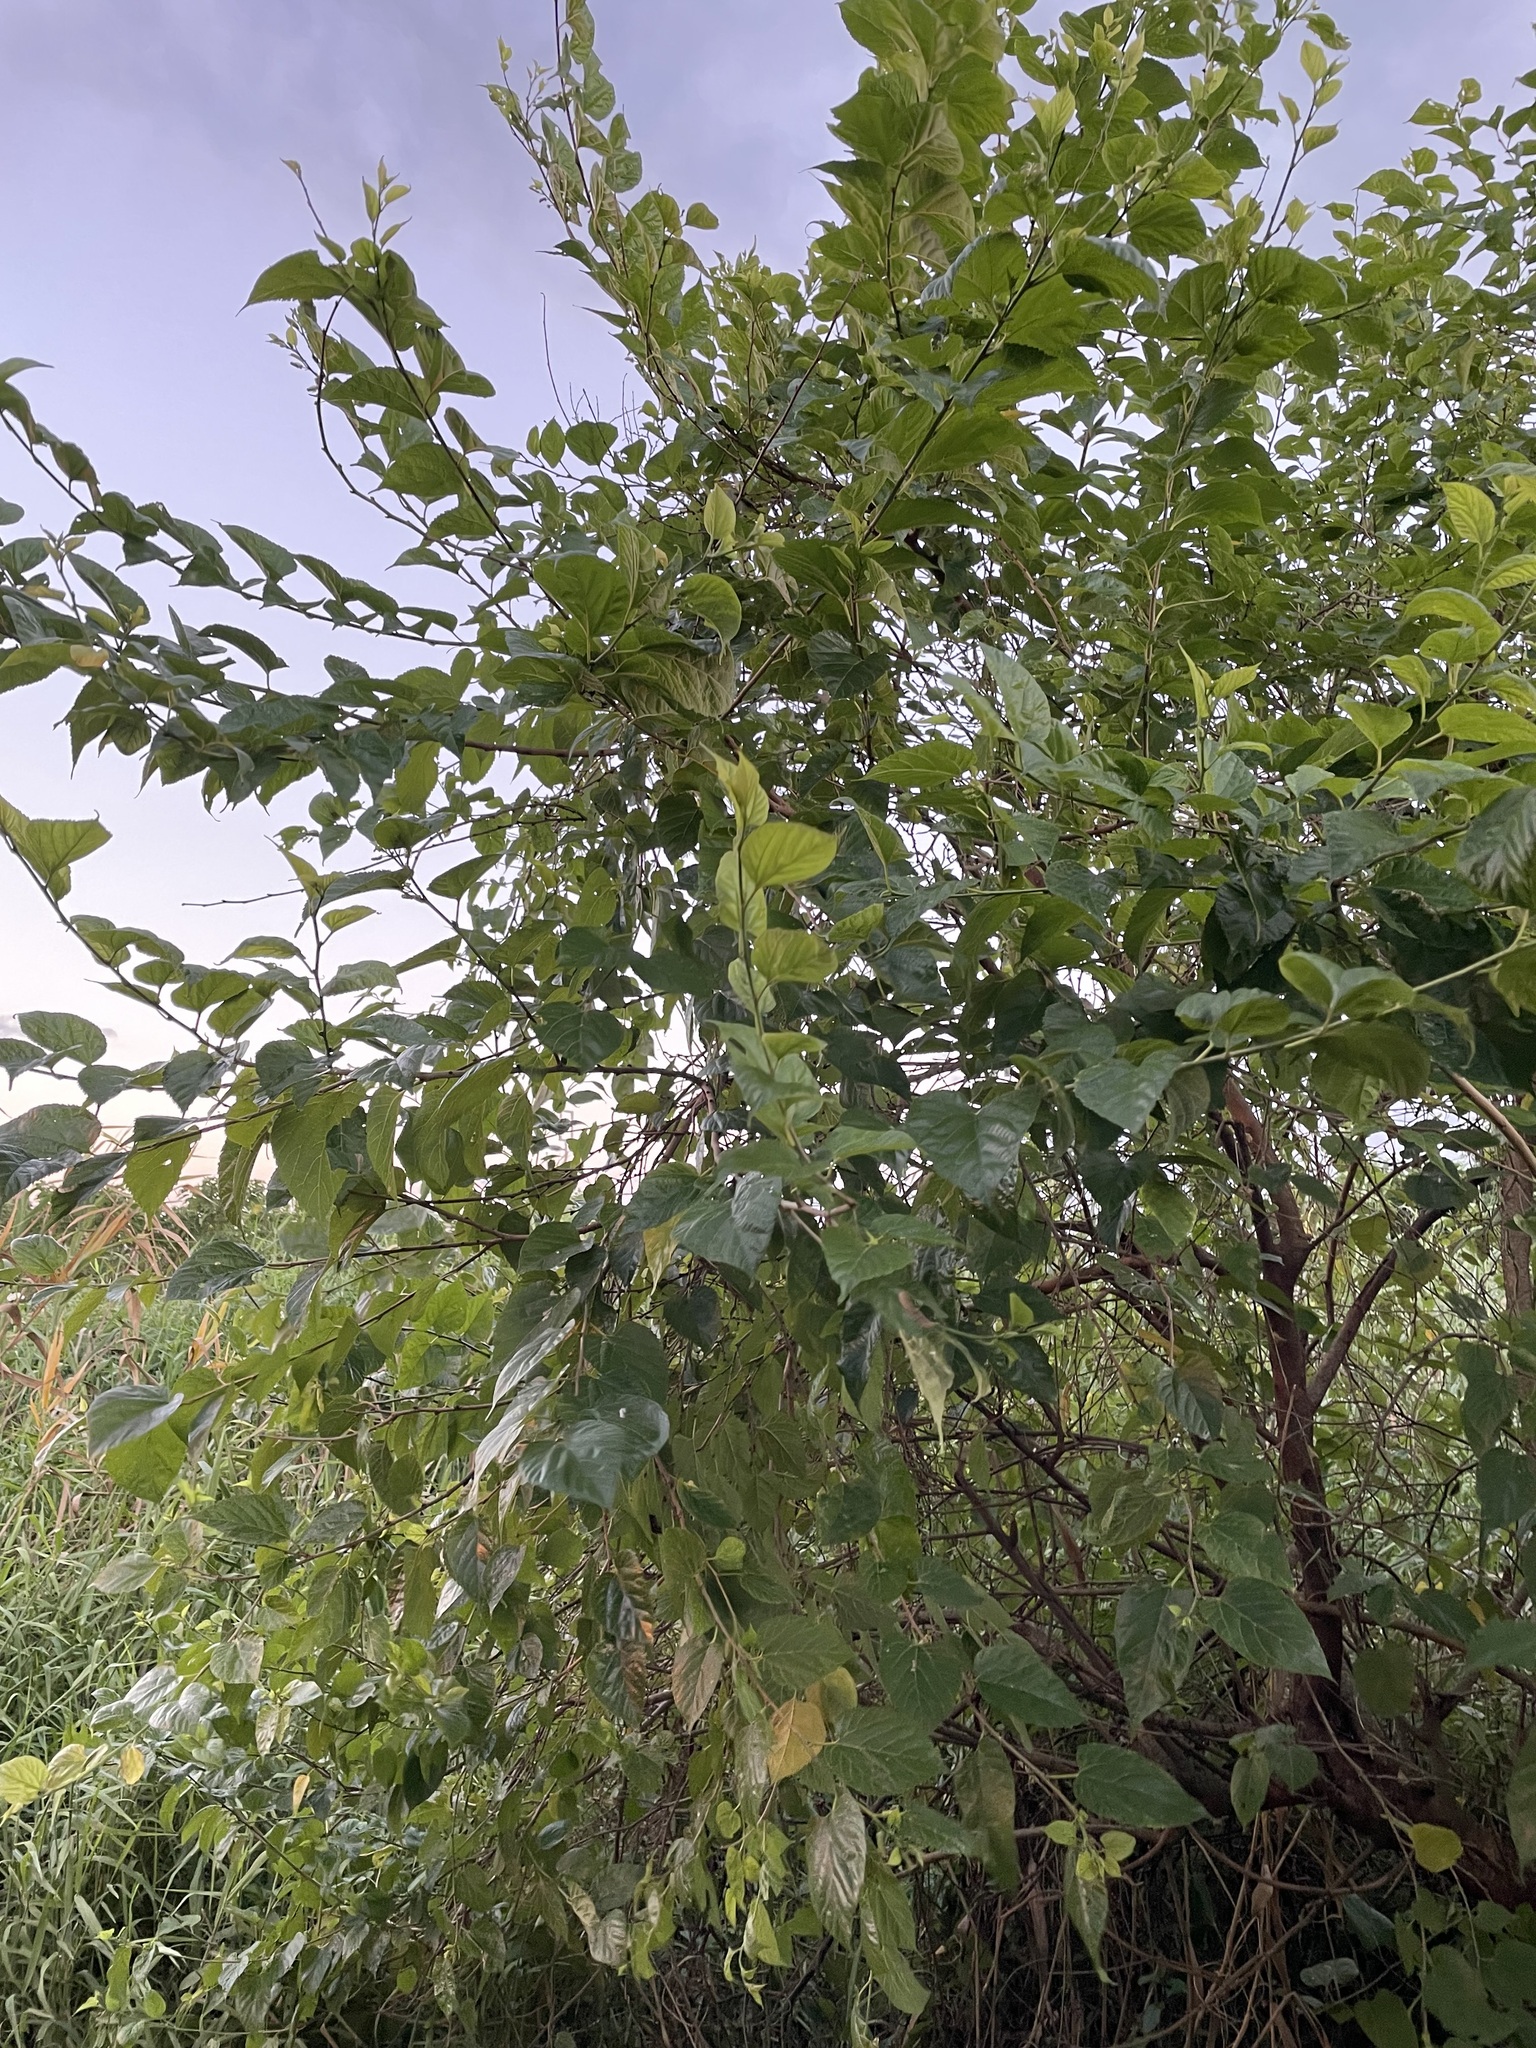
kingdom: Plantae
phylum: Tracheophyta
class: Magnoliopsida
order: Rosales
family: Moraceae
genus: Morus
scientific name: Morus indica
